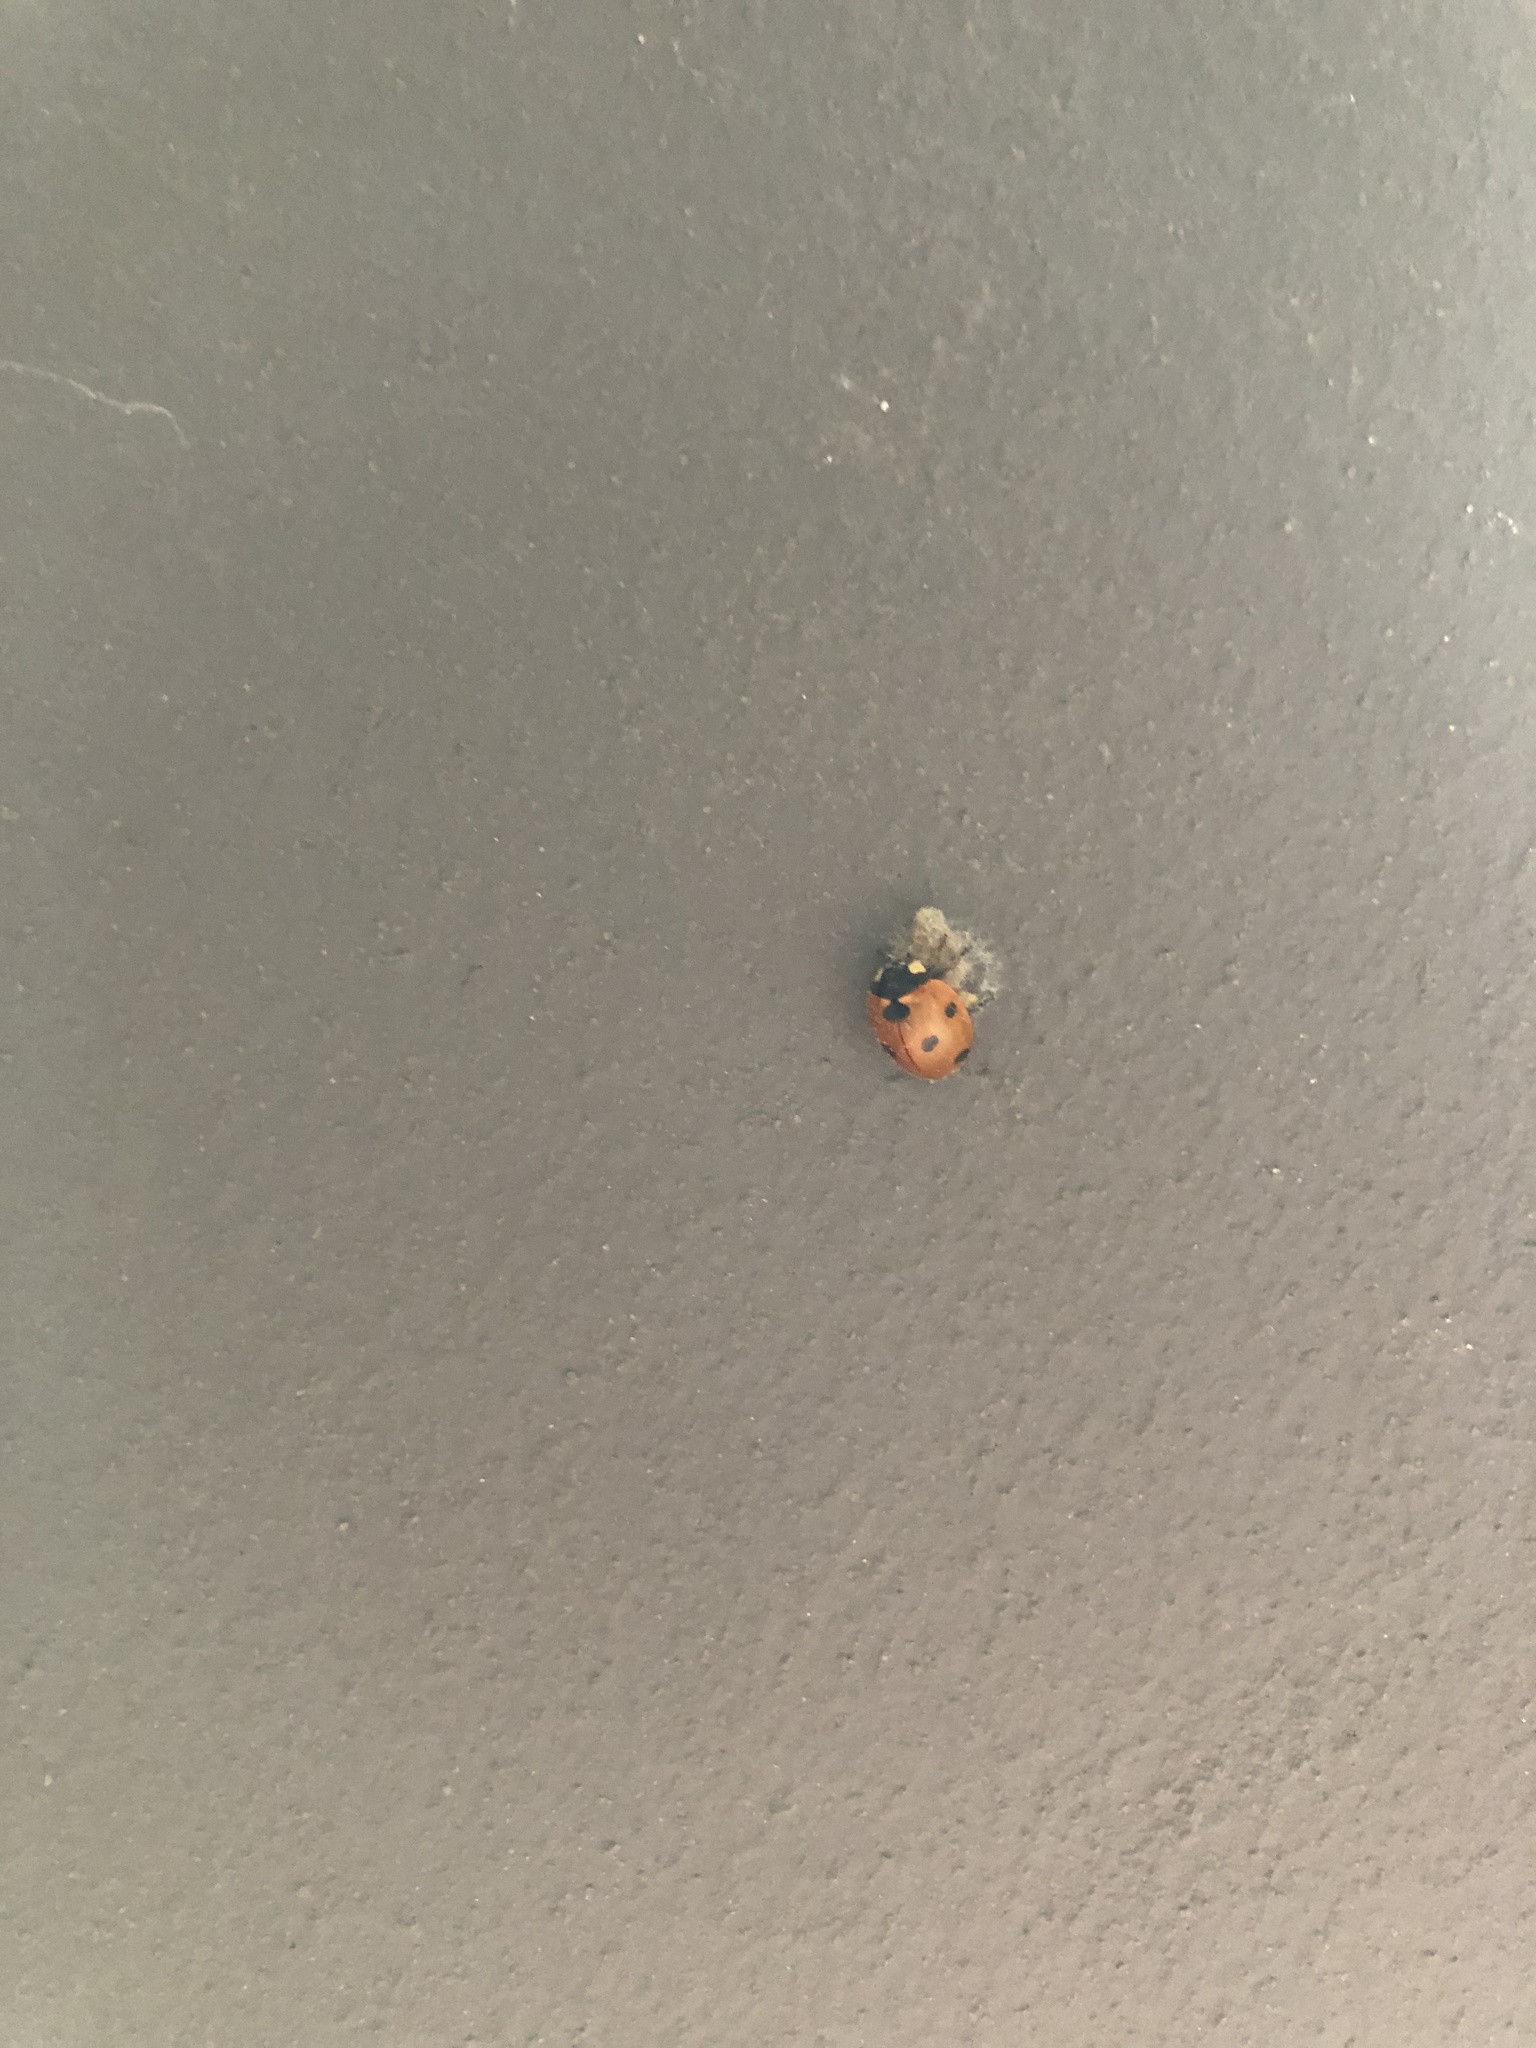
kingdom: Animalia
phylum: Arthropoda
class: Insecta
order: Coleoptera
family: Coccinellidae
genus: Coccinella
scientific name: Coccinella septempunctata
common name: Sevenspotted lady beetle
